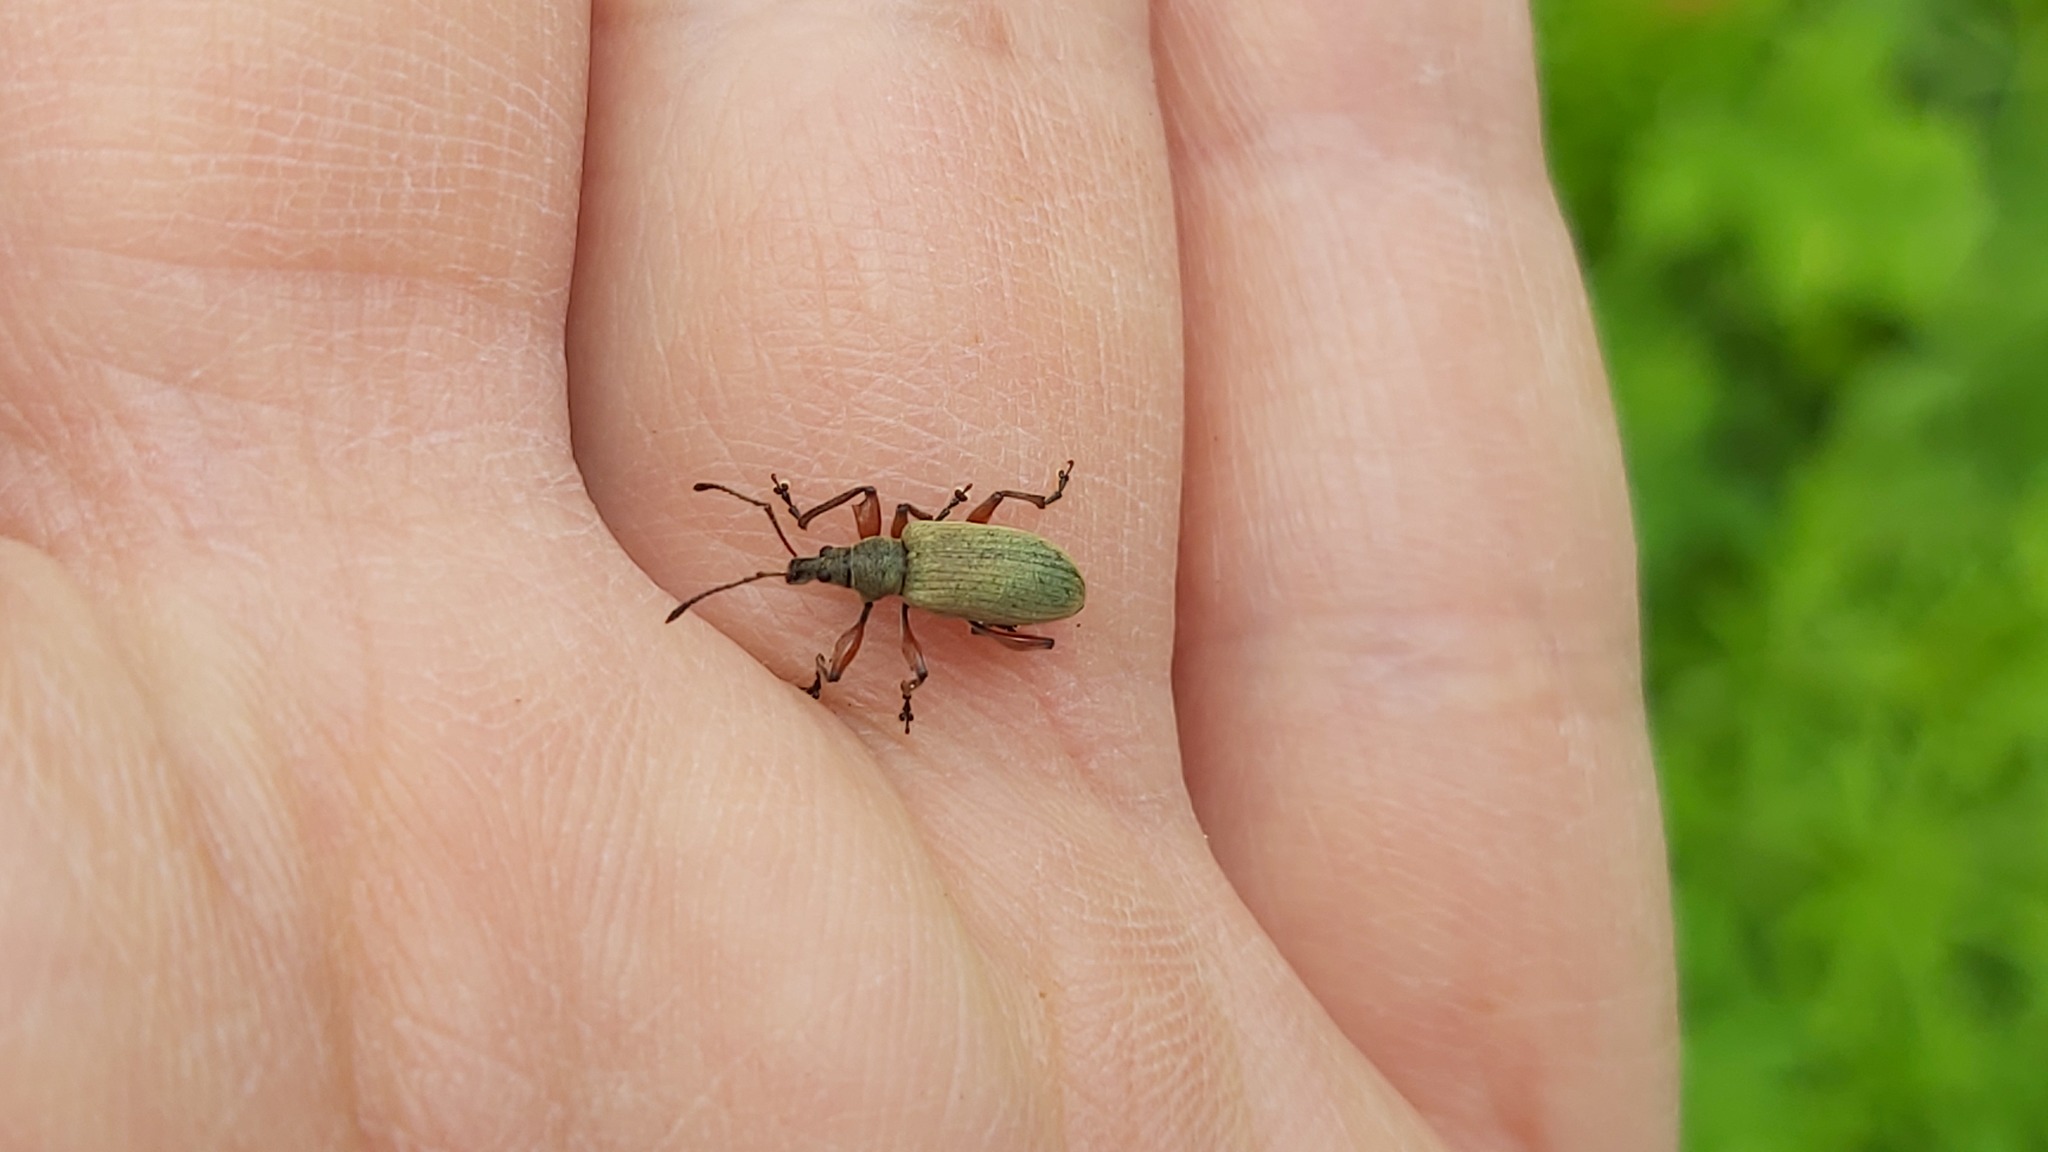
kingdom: Animalia
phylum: Arthropoda
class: Insecta
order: Coleoptera
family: Curculionidae
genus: Phyllobius
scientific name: Phyllobius glaucus
